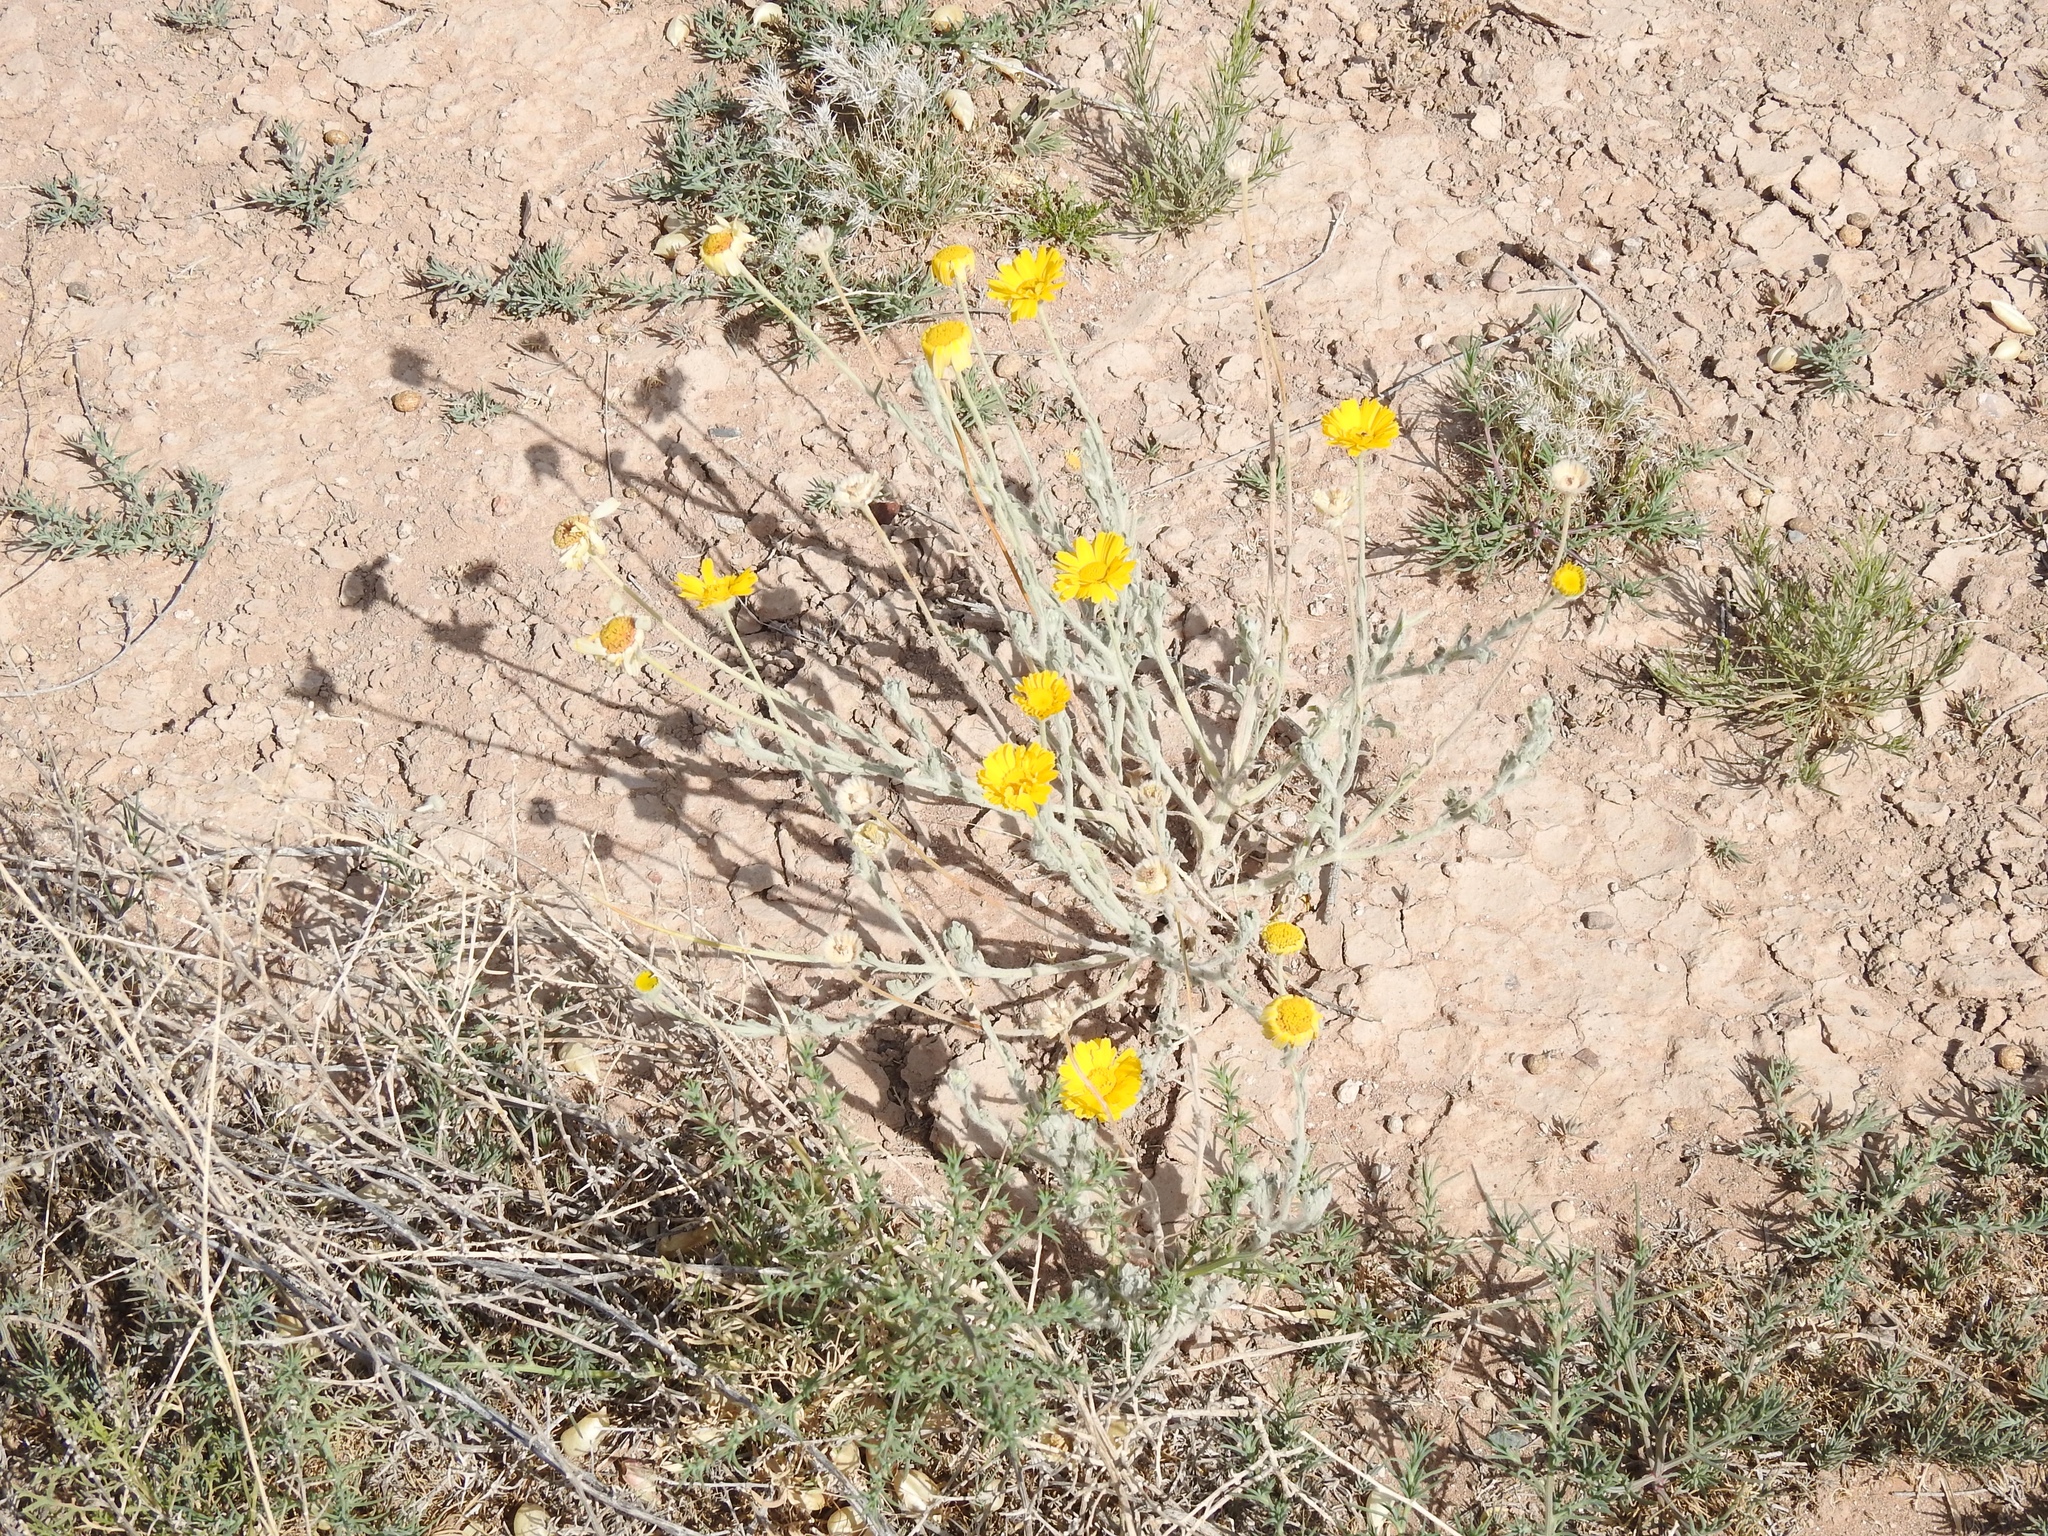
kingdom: Plantae
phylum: Tracheophyta
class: Magnoliopsida
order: Asterales
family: Asteraceae
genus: Baileya
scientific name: Baileya multiradiata
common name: Desert-marigold
